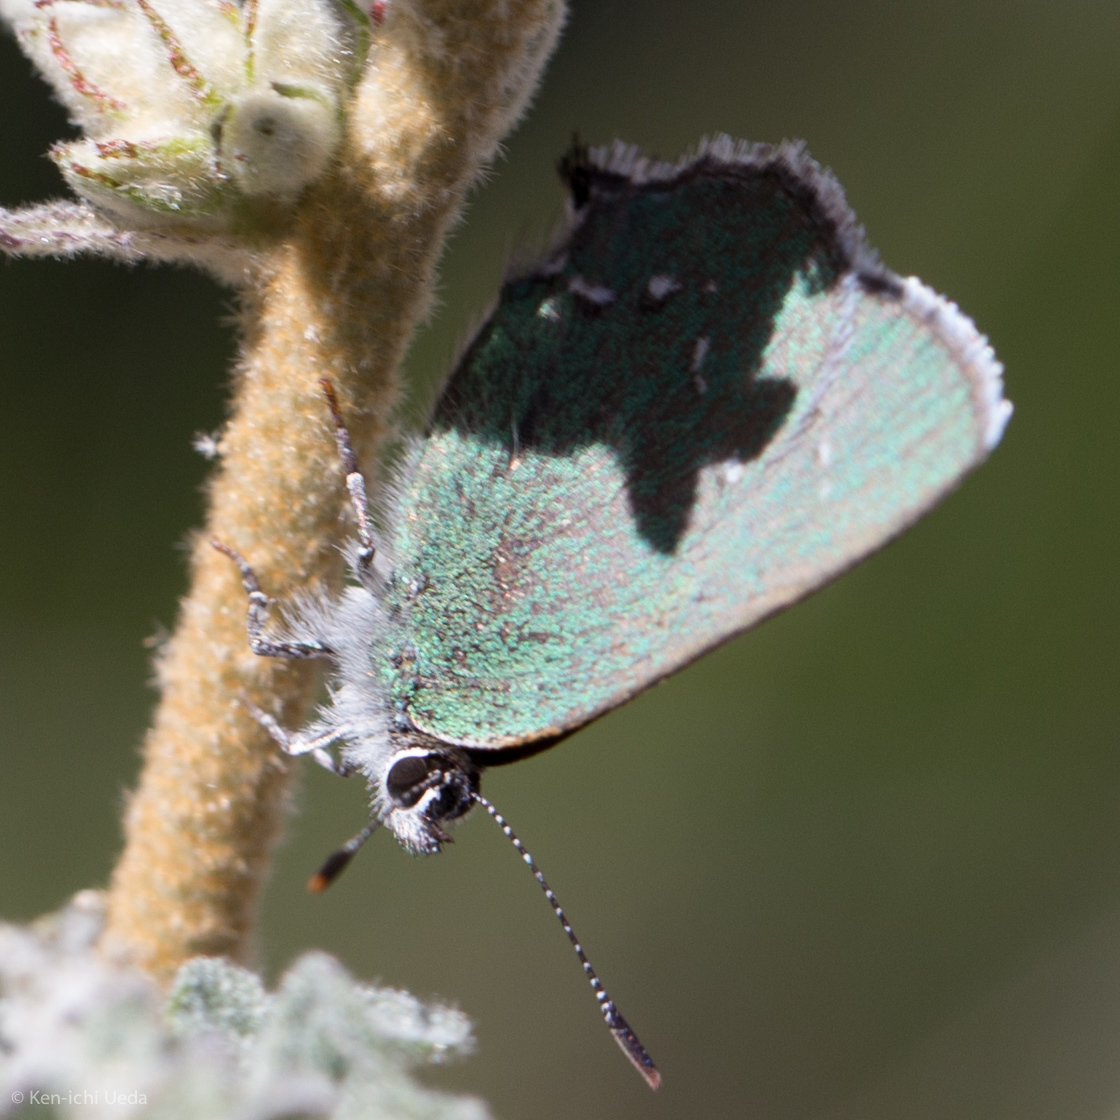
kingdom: Animalia
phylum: Arthropoda
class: Insecta
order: Lepidoptera
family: Lycaenidae
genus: Thecla
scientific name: Thecla sheridanii
